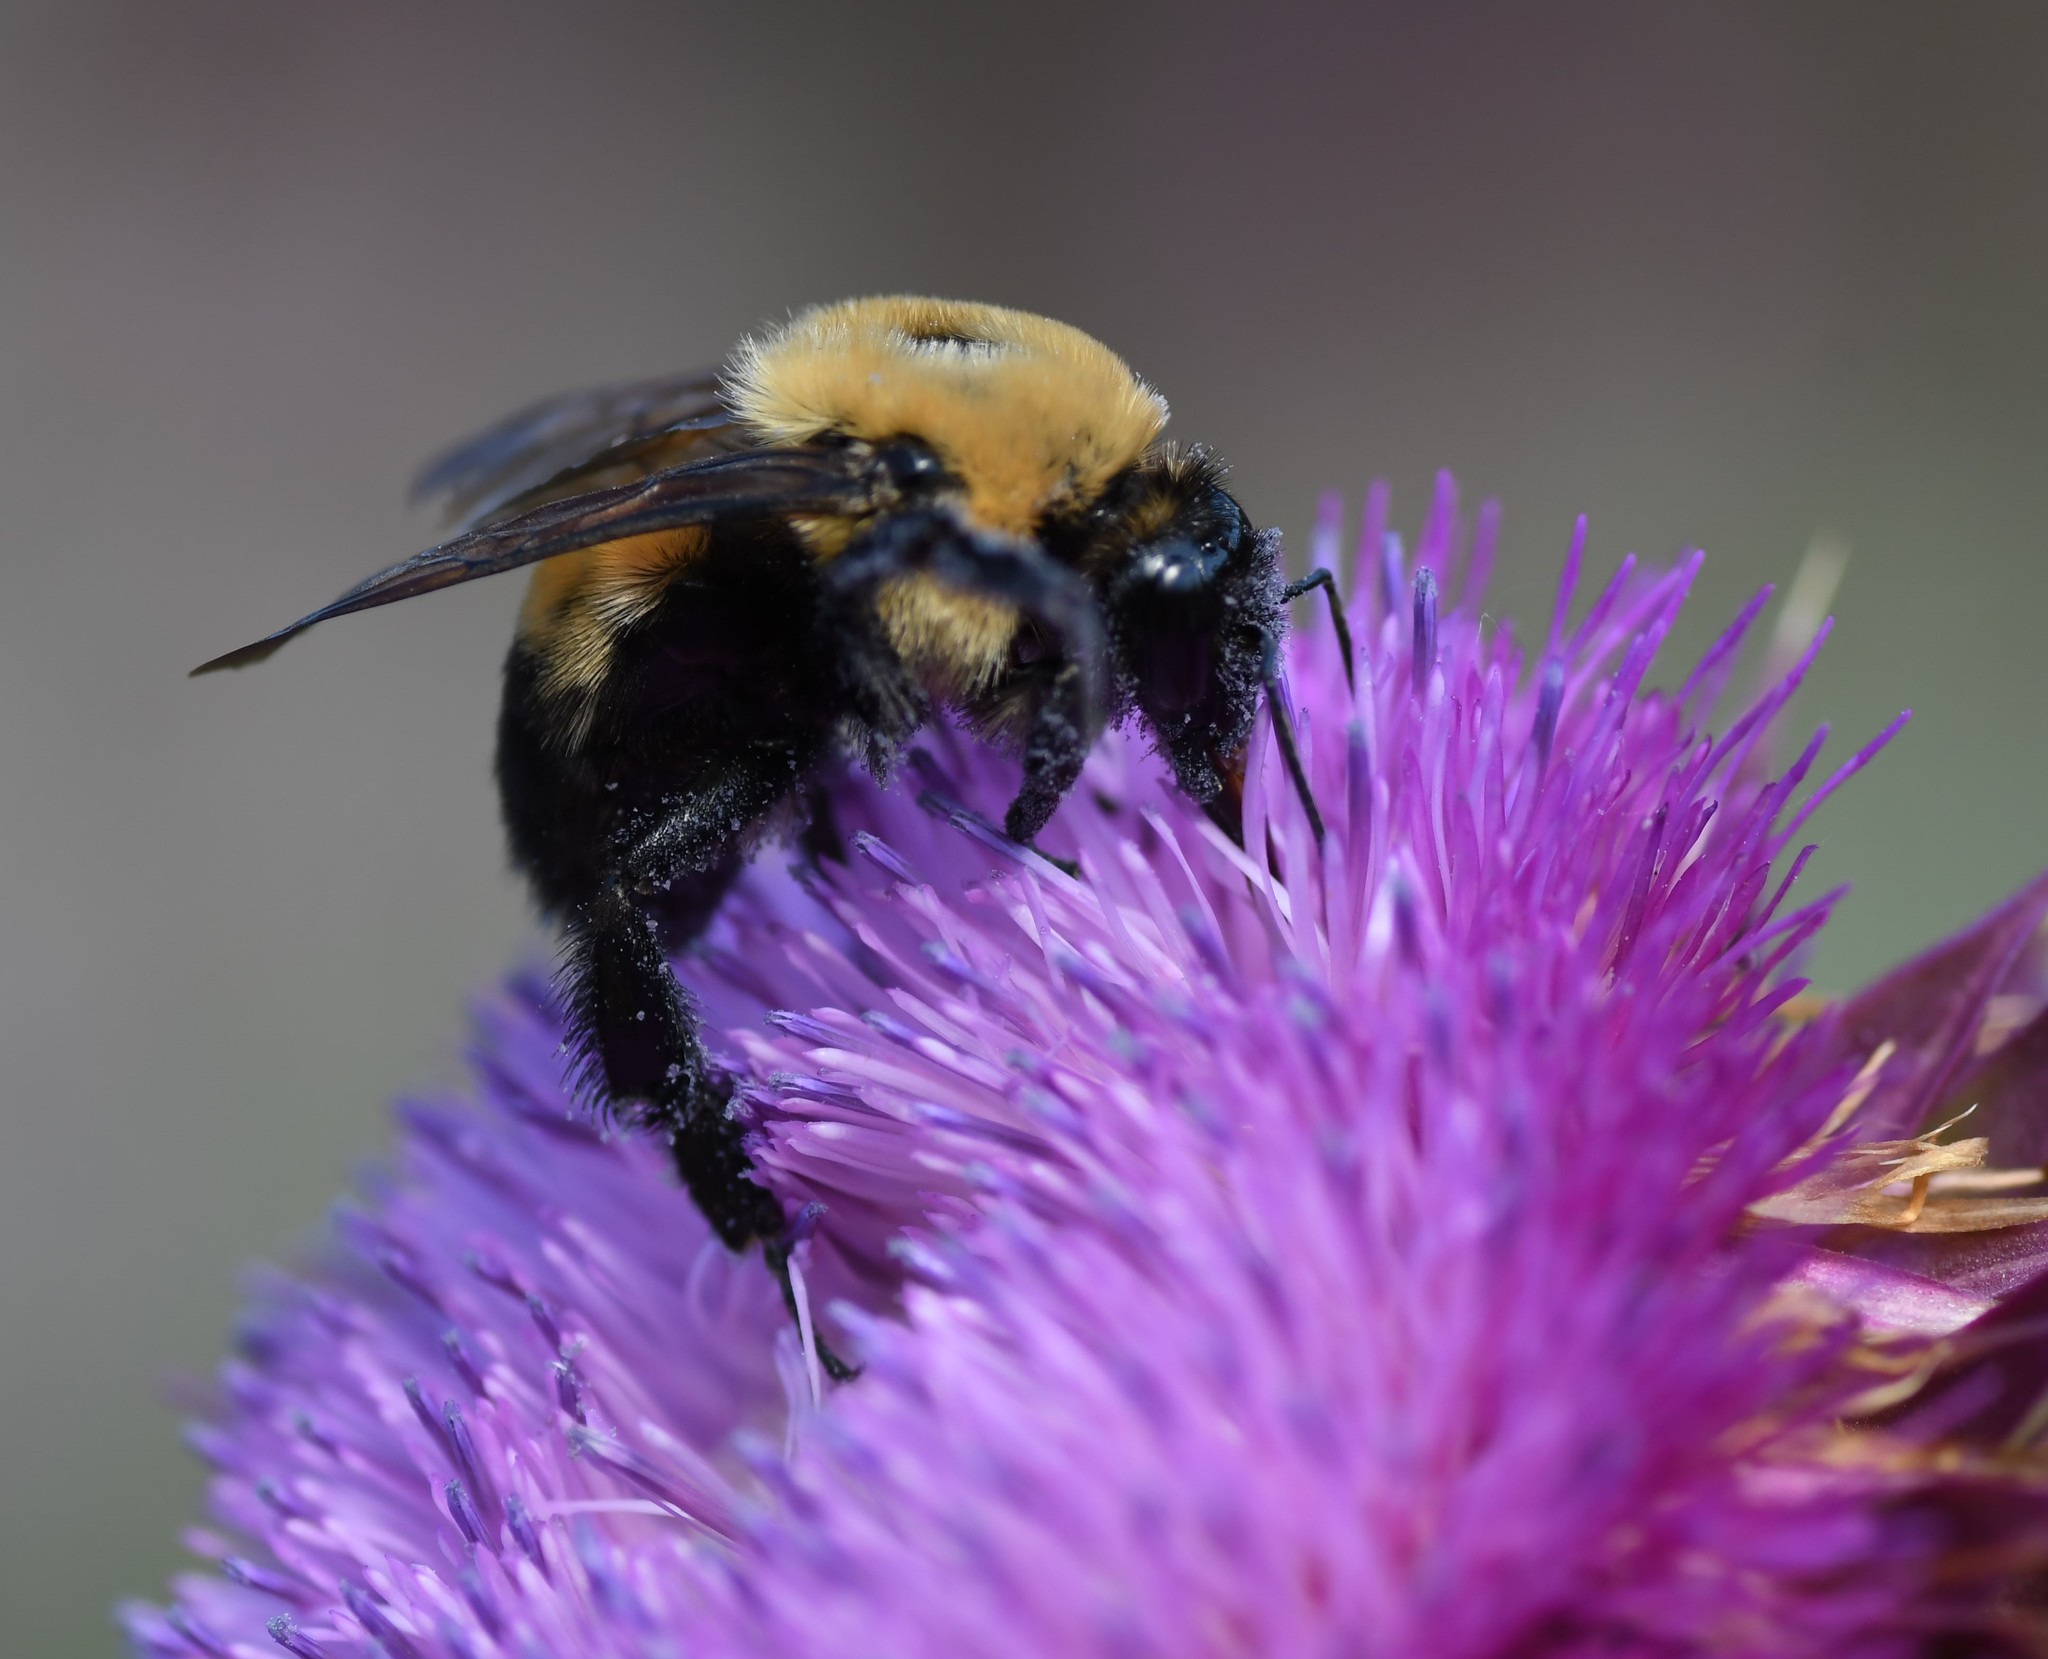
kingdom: Animalia
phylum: Arthropoda
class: Insecta
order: Hymenoptera
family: Apidae
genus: Bombus
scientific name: Bombus griseocollis
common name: Brown-belted bumble bee
